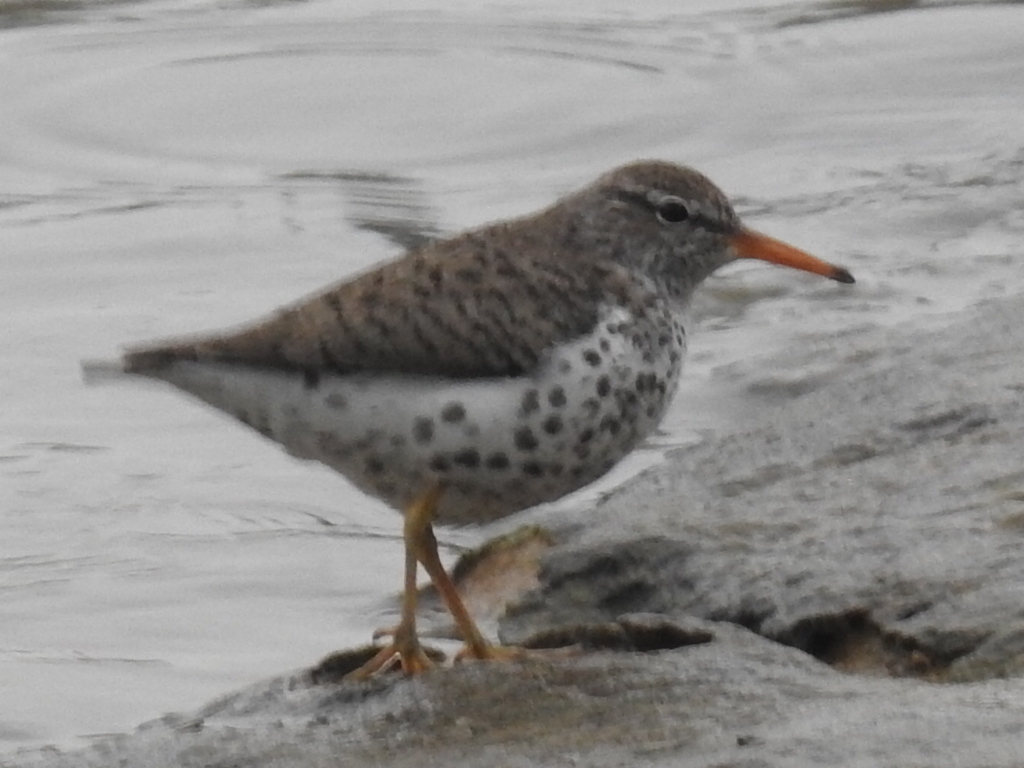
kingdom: Animalia
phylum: Chordata
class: Aves
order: Charadriiformes
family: Scolopacidae
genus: Actitis
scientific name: Actitis macularius
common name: Spotted sandpiper
